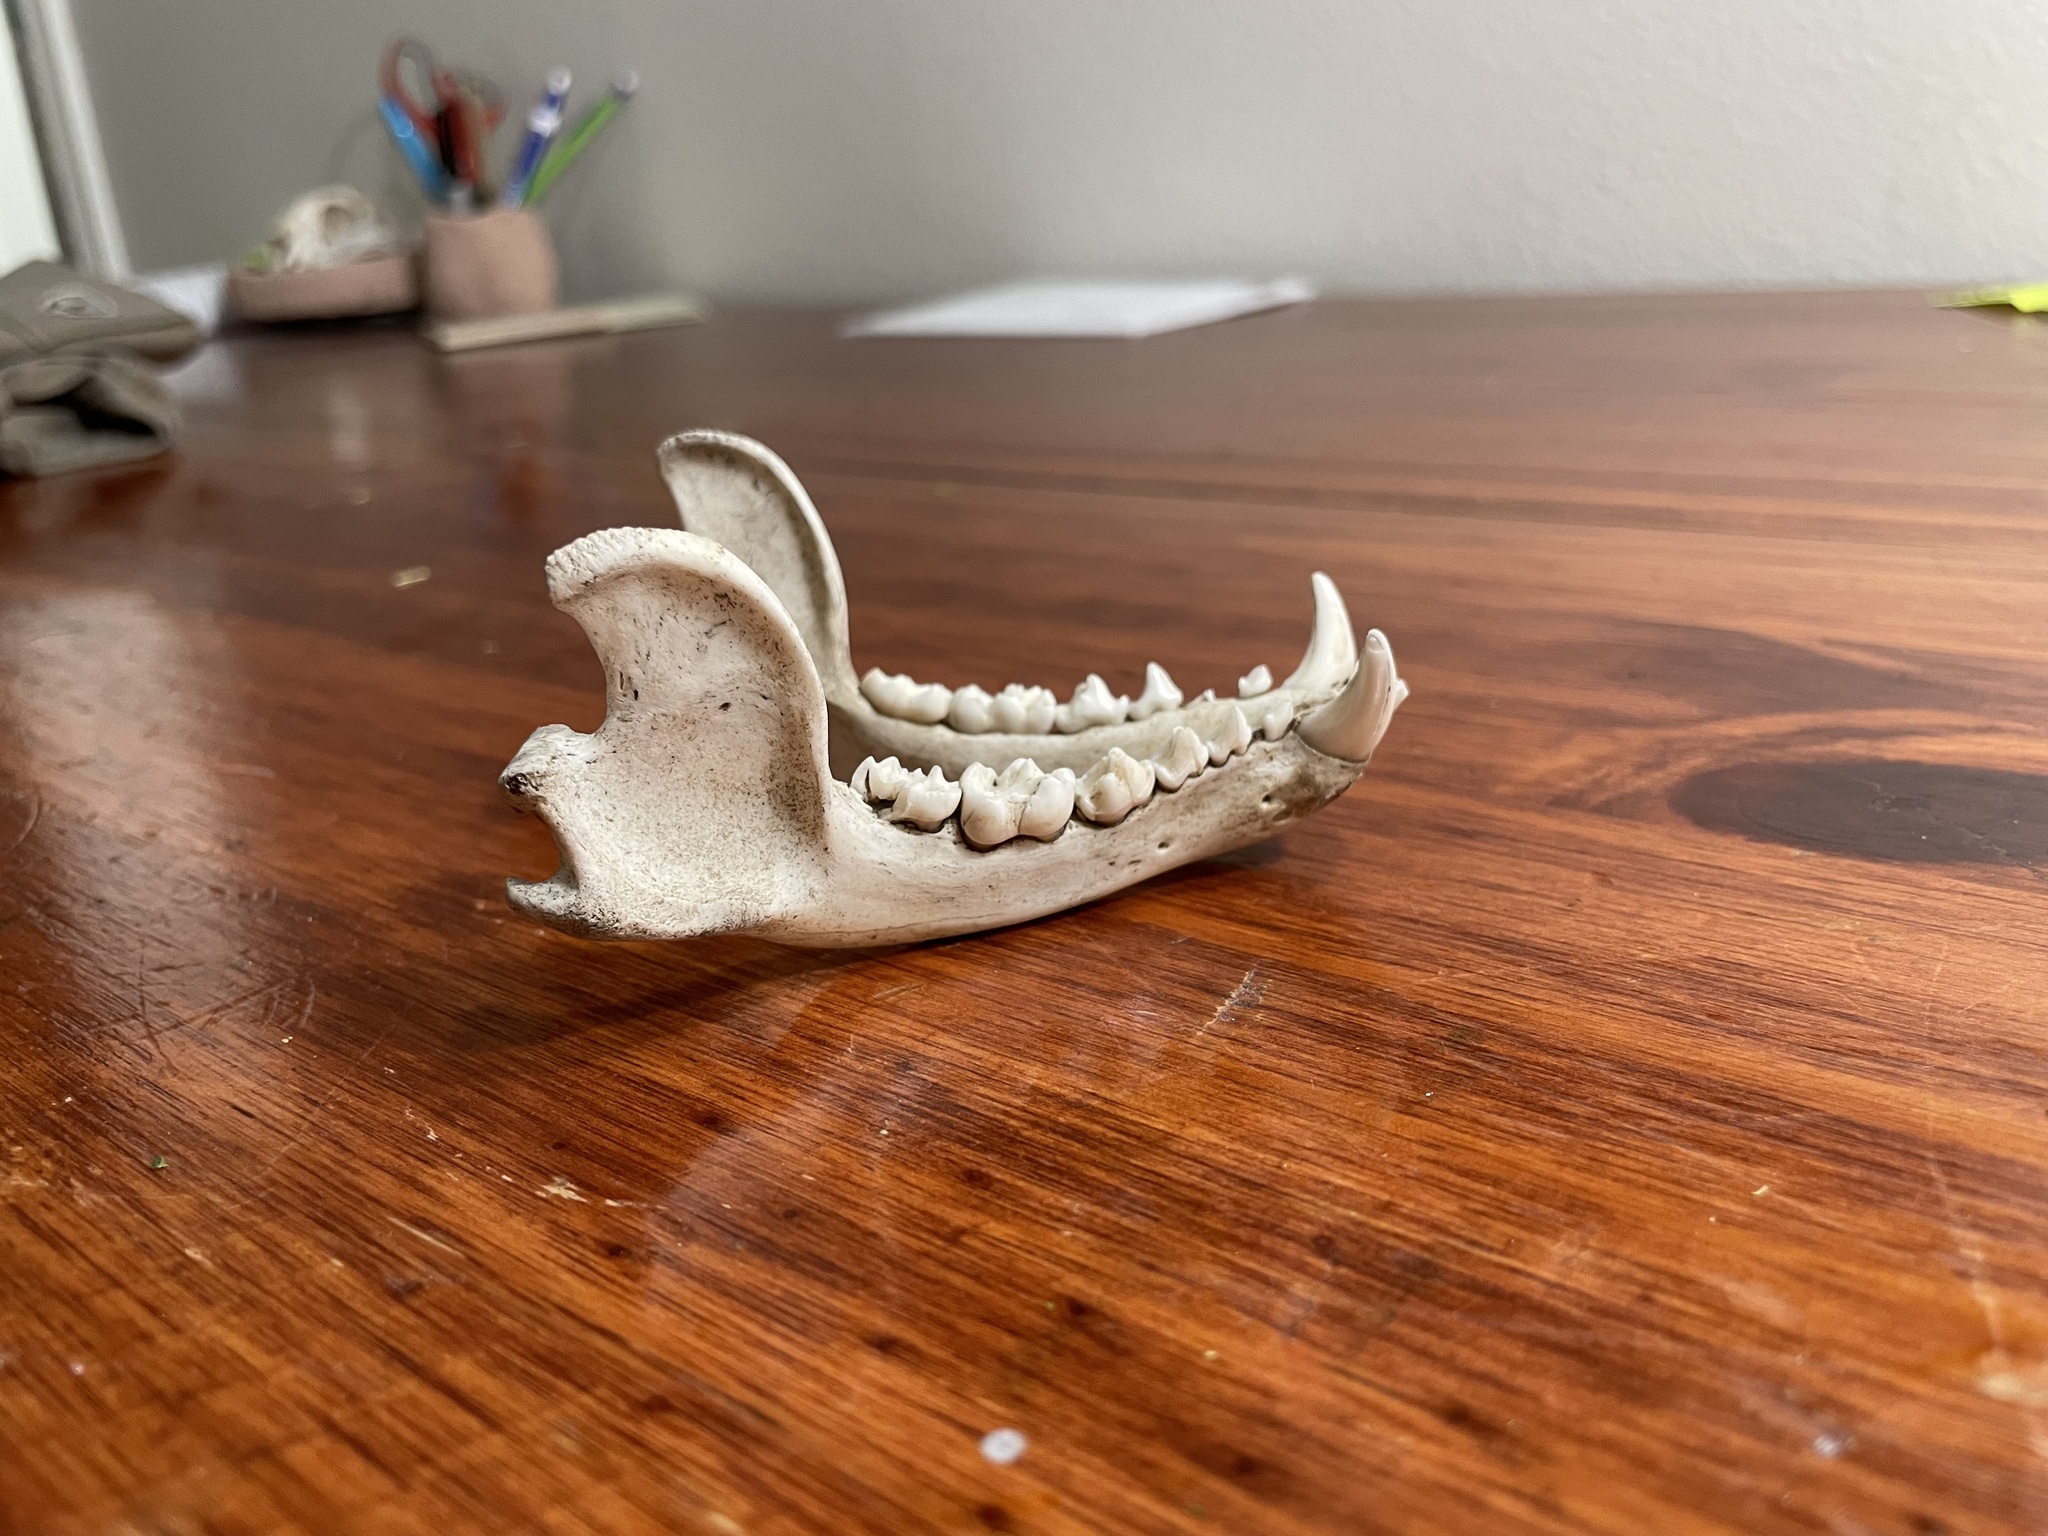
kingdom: Animalia
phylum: Chordata
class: Mammalia
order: Carnivora
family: Procyonidae
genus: Procyon
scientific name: Procyon lotor
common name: Raccoon
